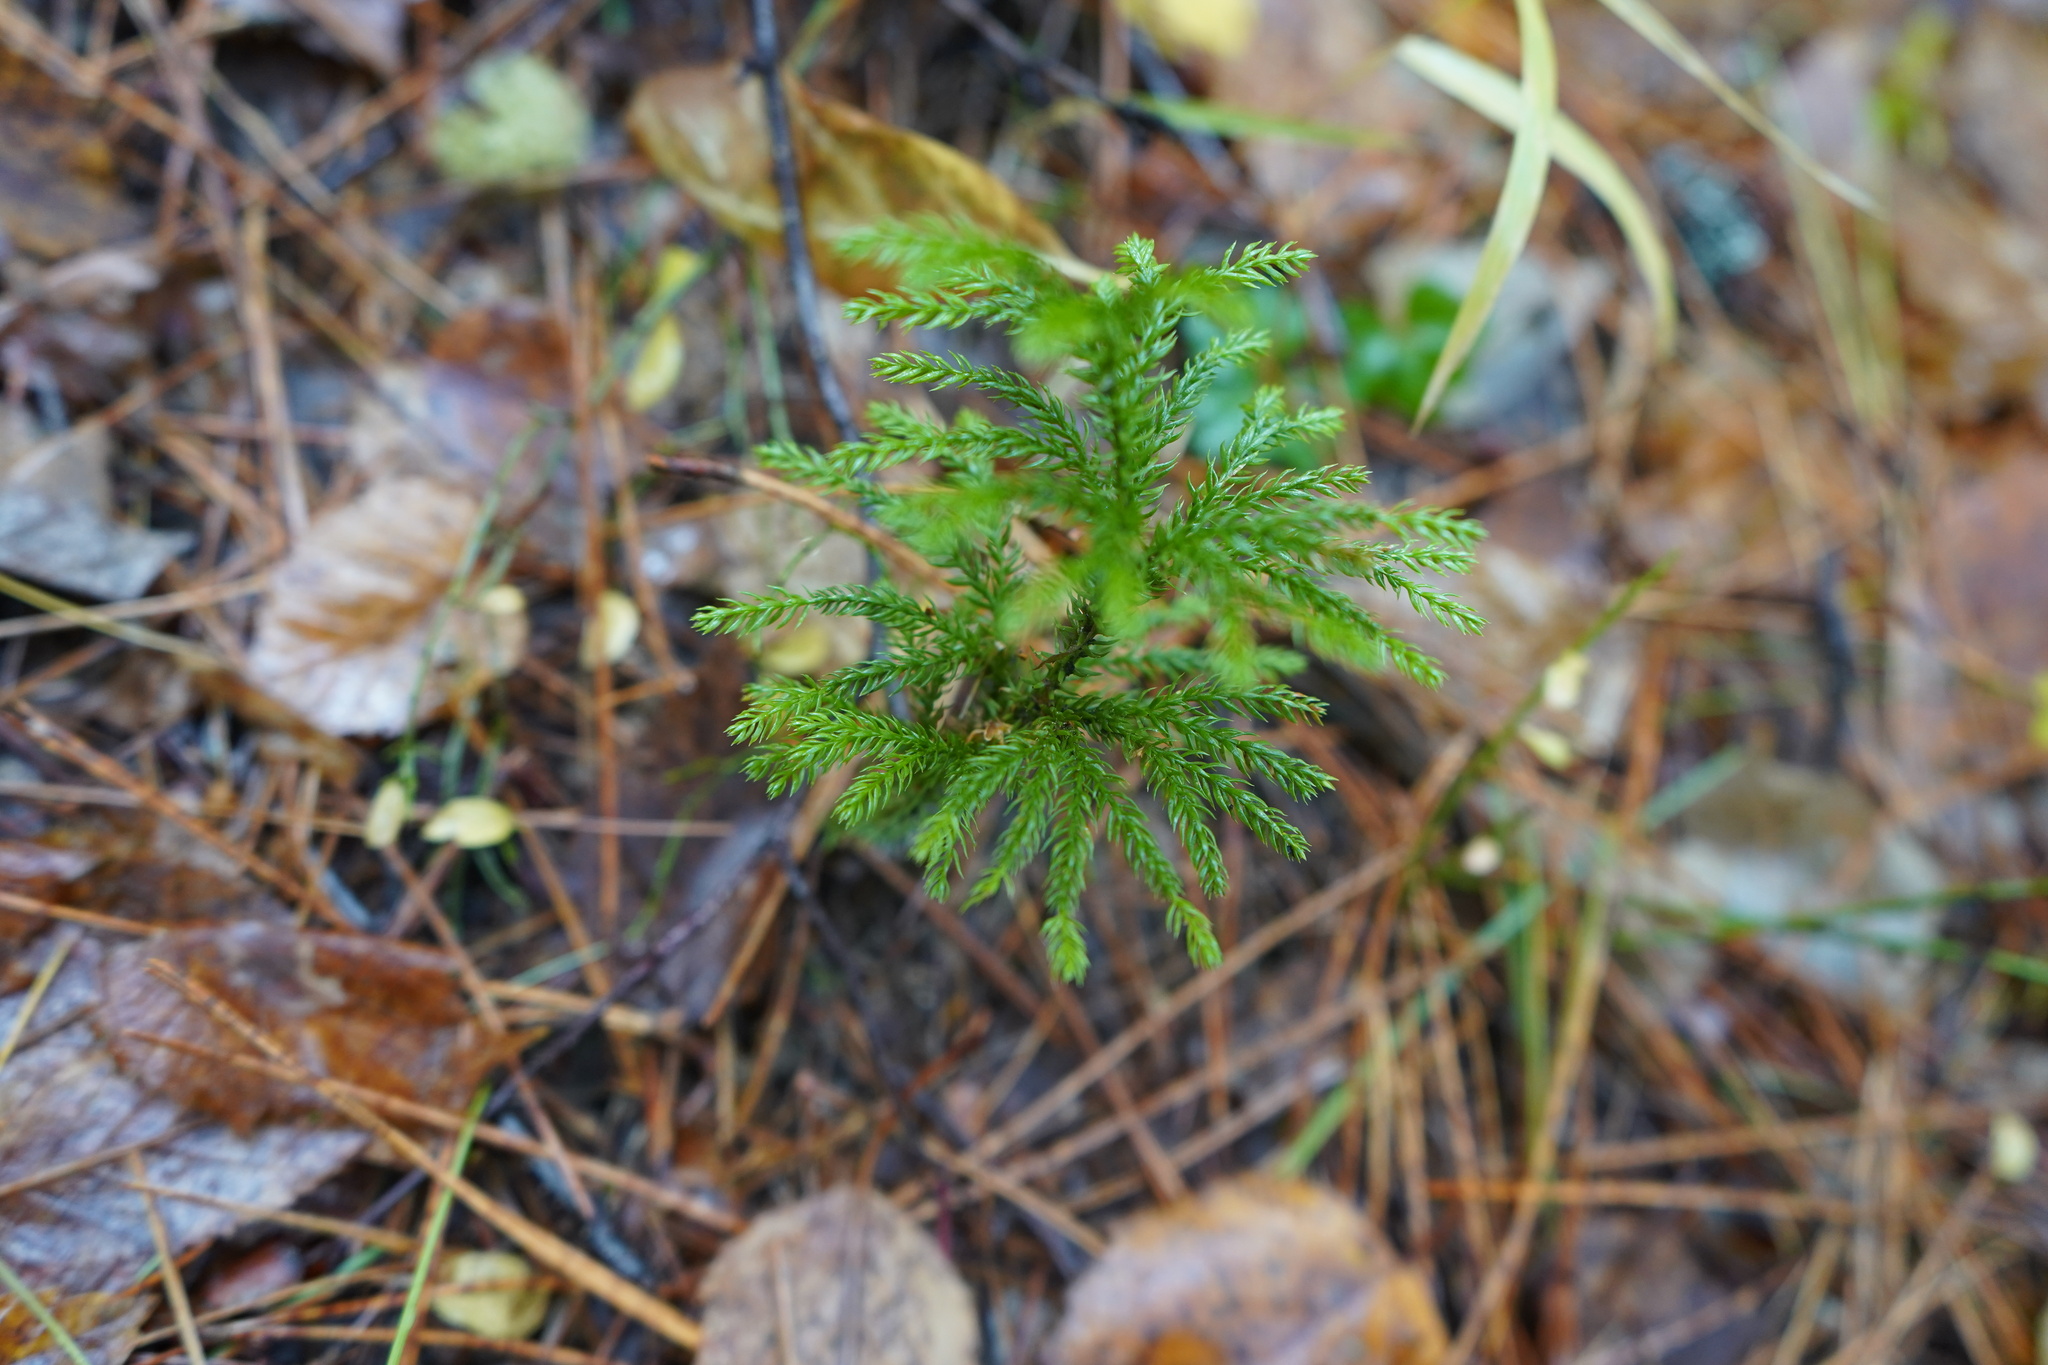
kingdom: Plantae
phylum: Tracheophyta
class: Lycopodiopsida
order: Lycopodiales
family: Lycopodiaceae
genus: Dendrolycopodium
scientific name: Dendrolycopodium dendroideum
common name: Northern tree-clubmoss
